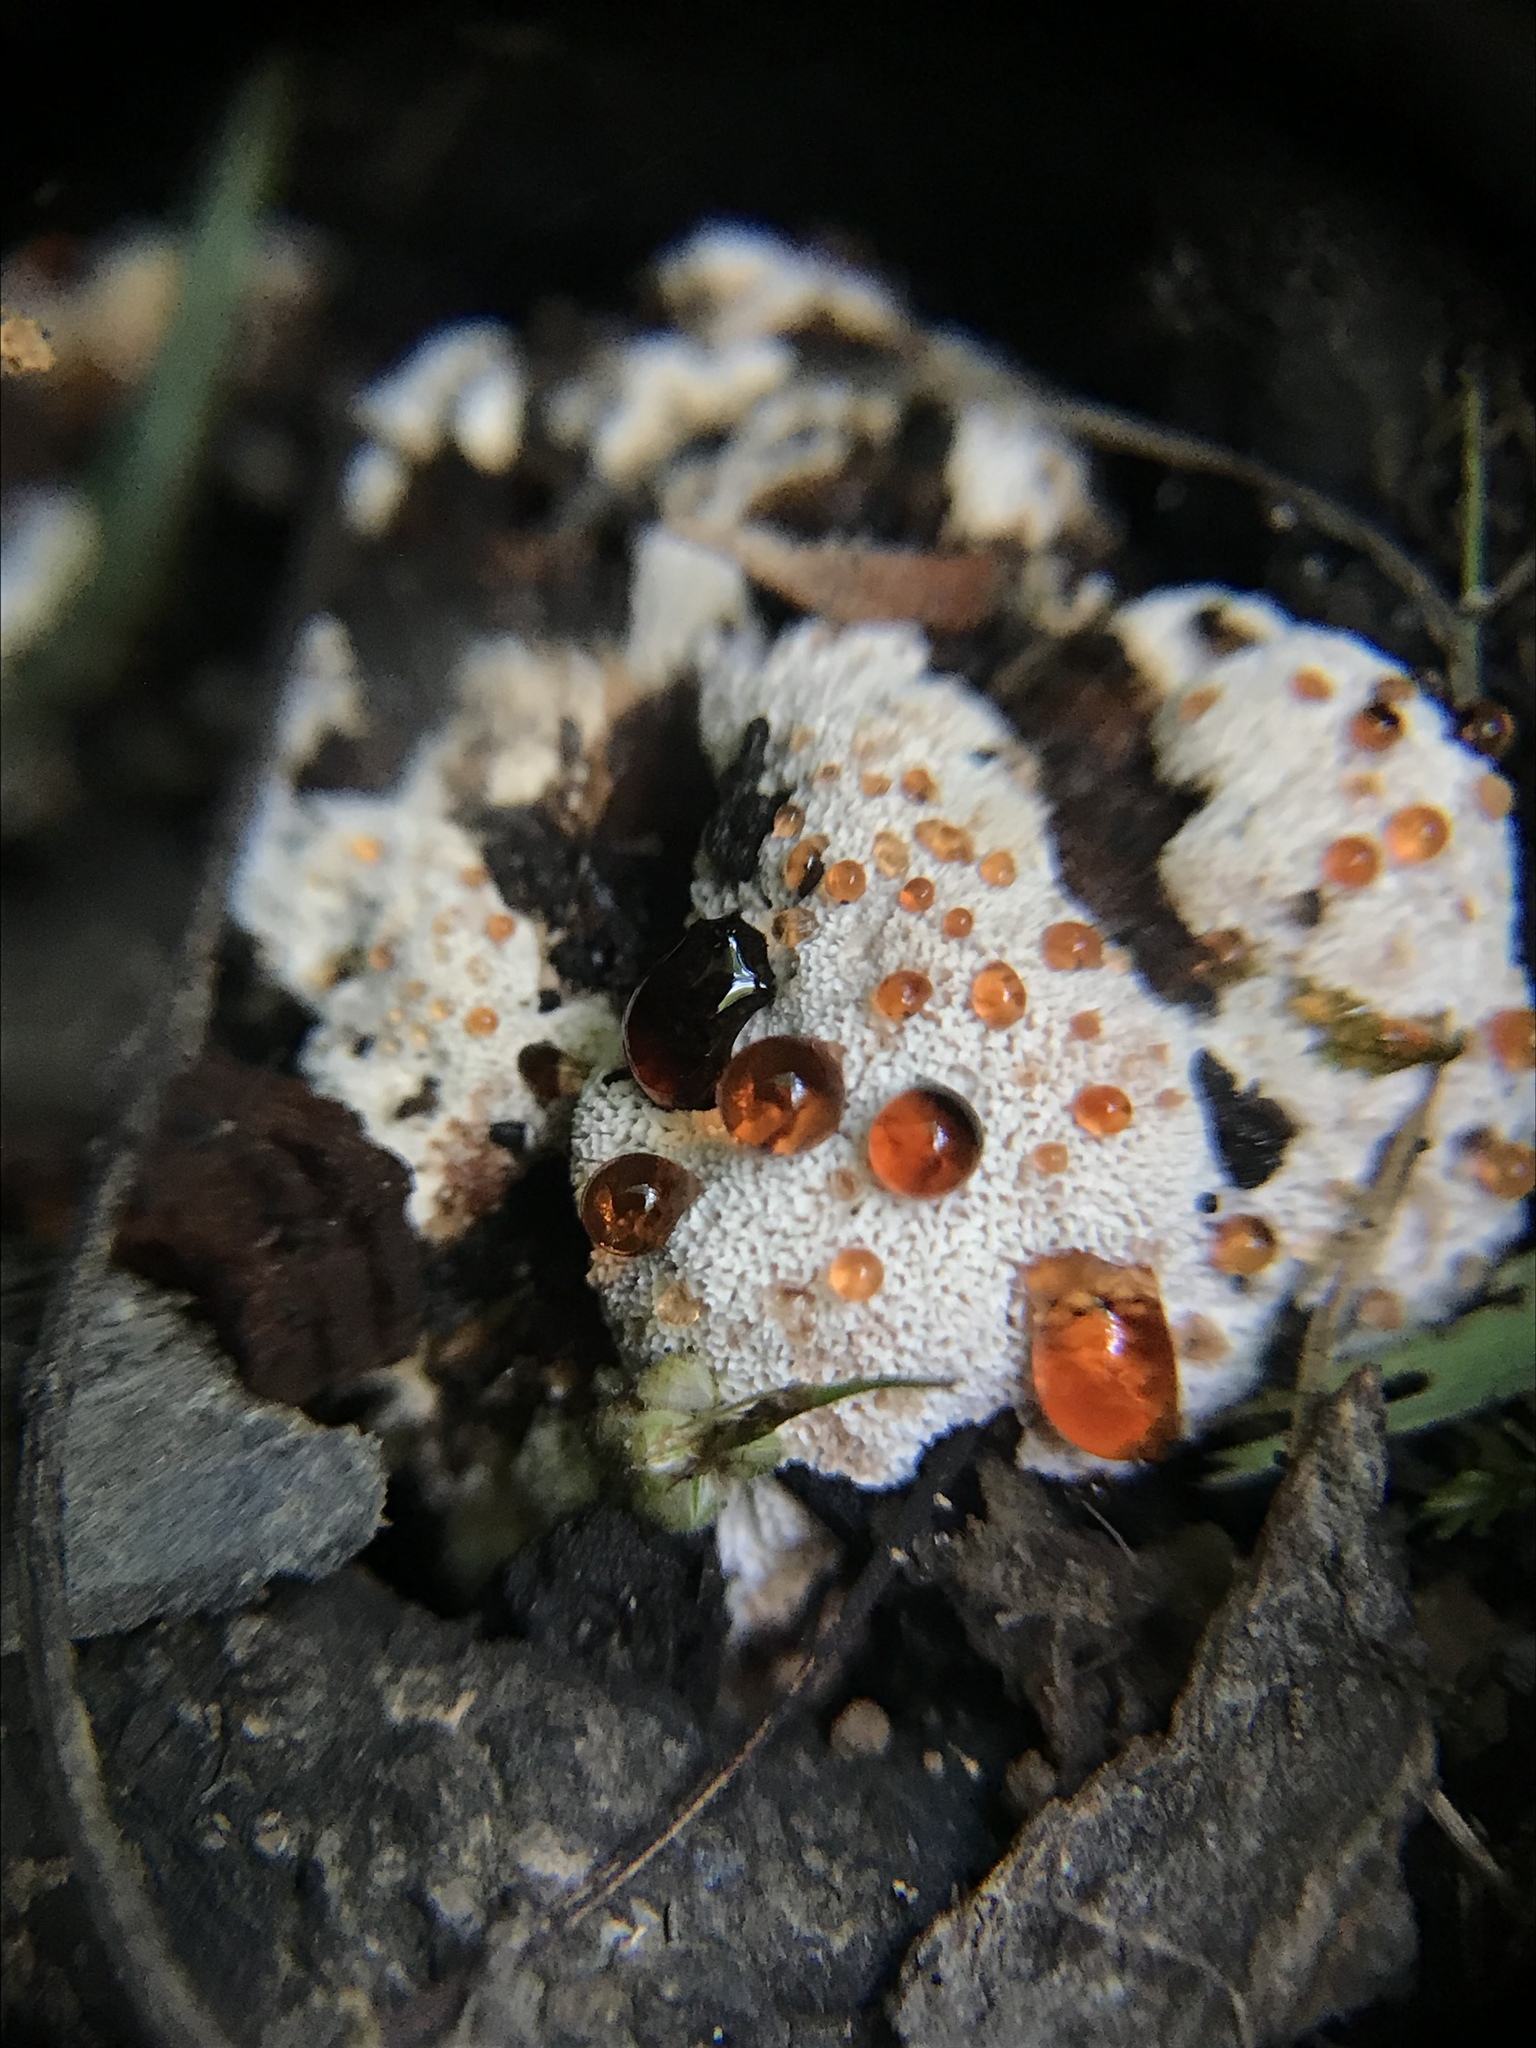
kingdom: Fungi
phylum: Basidiomycota
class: Agaricomycetes
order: Polyporales
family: Podoscyphaceae
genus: Abortiporus
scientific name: Abortiporus biennis
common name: Blushing rosette
